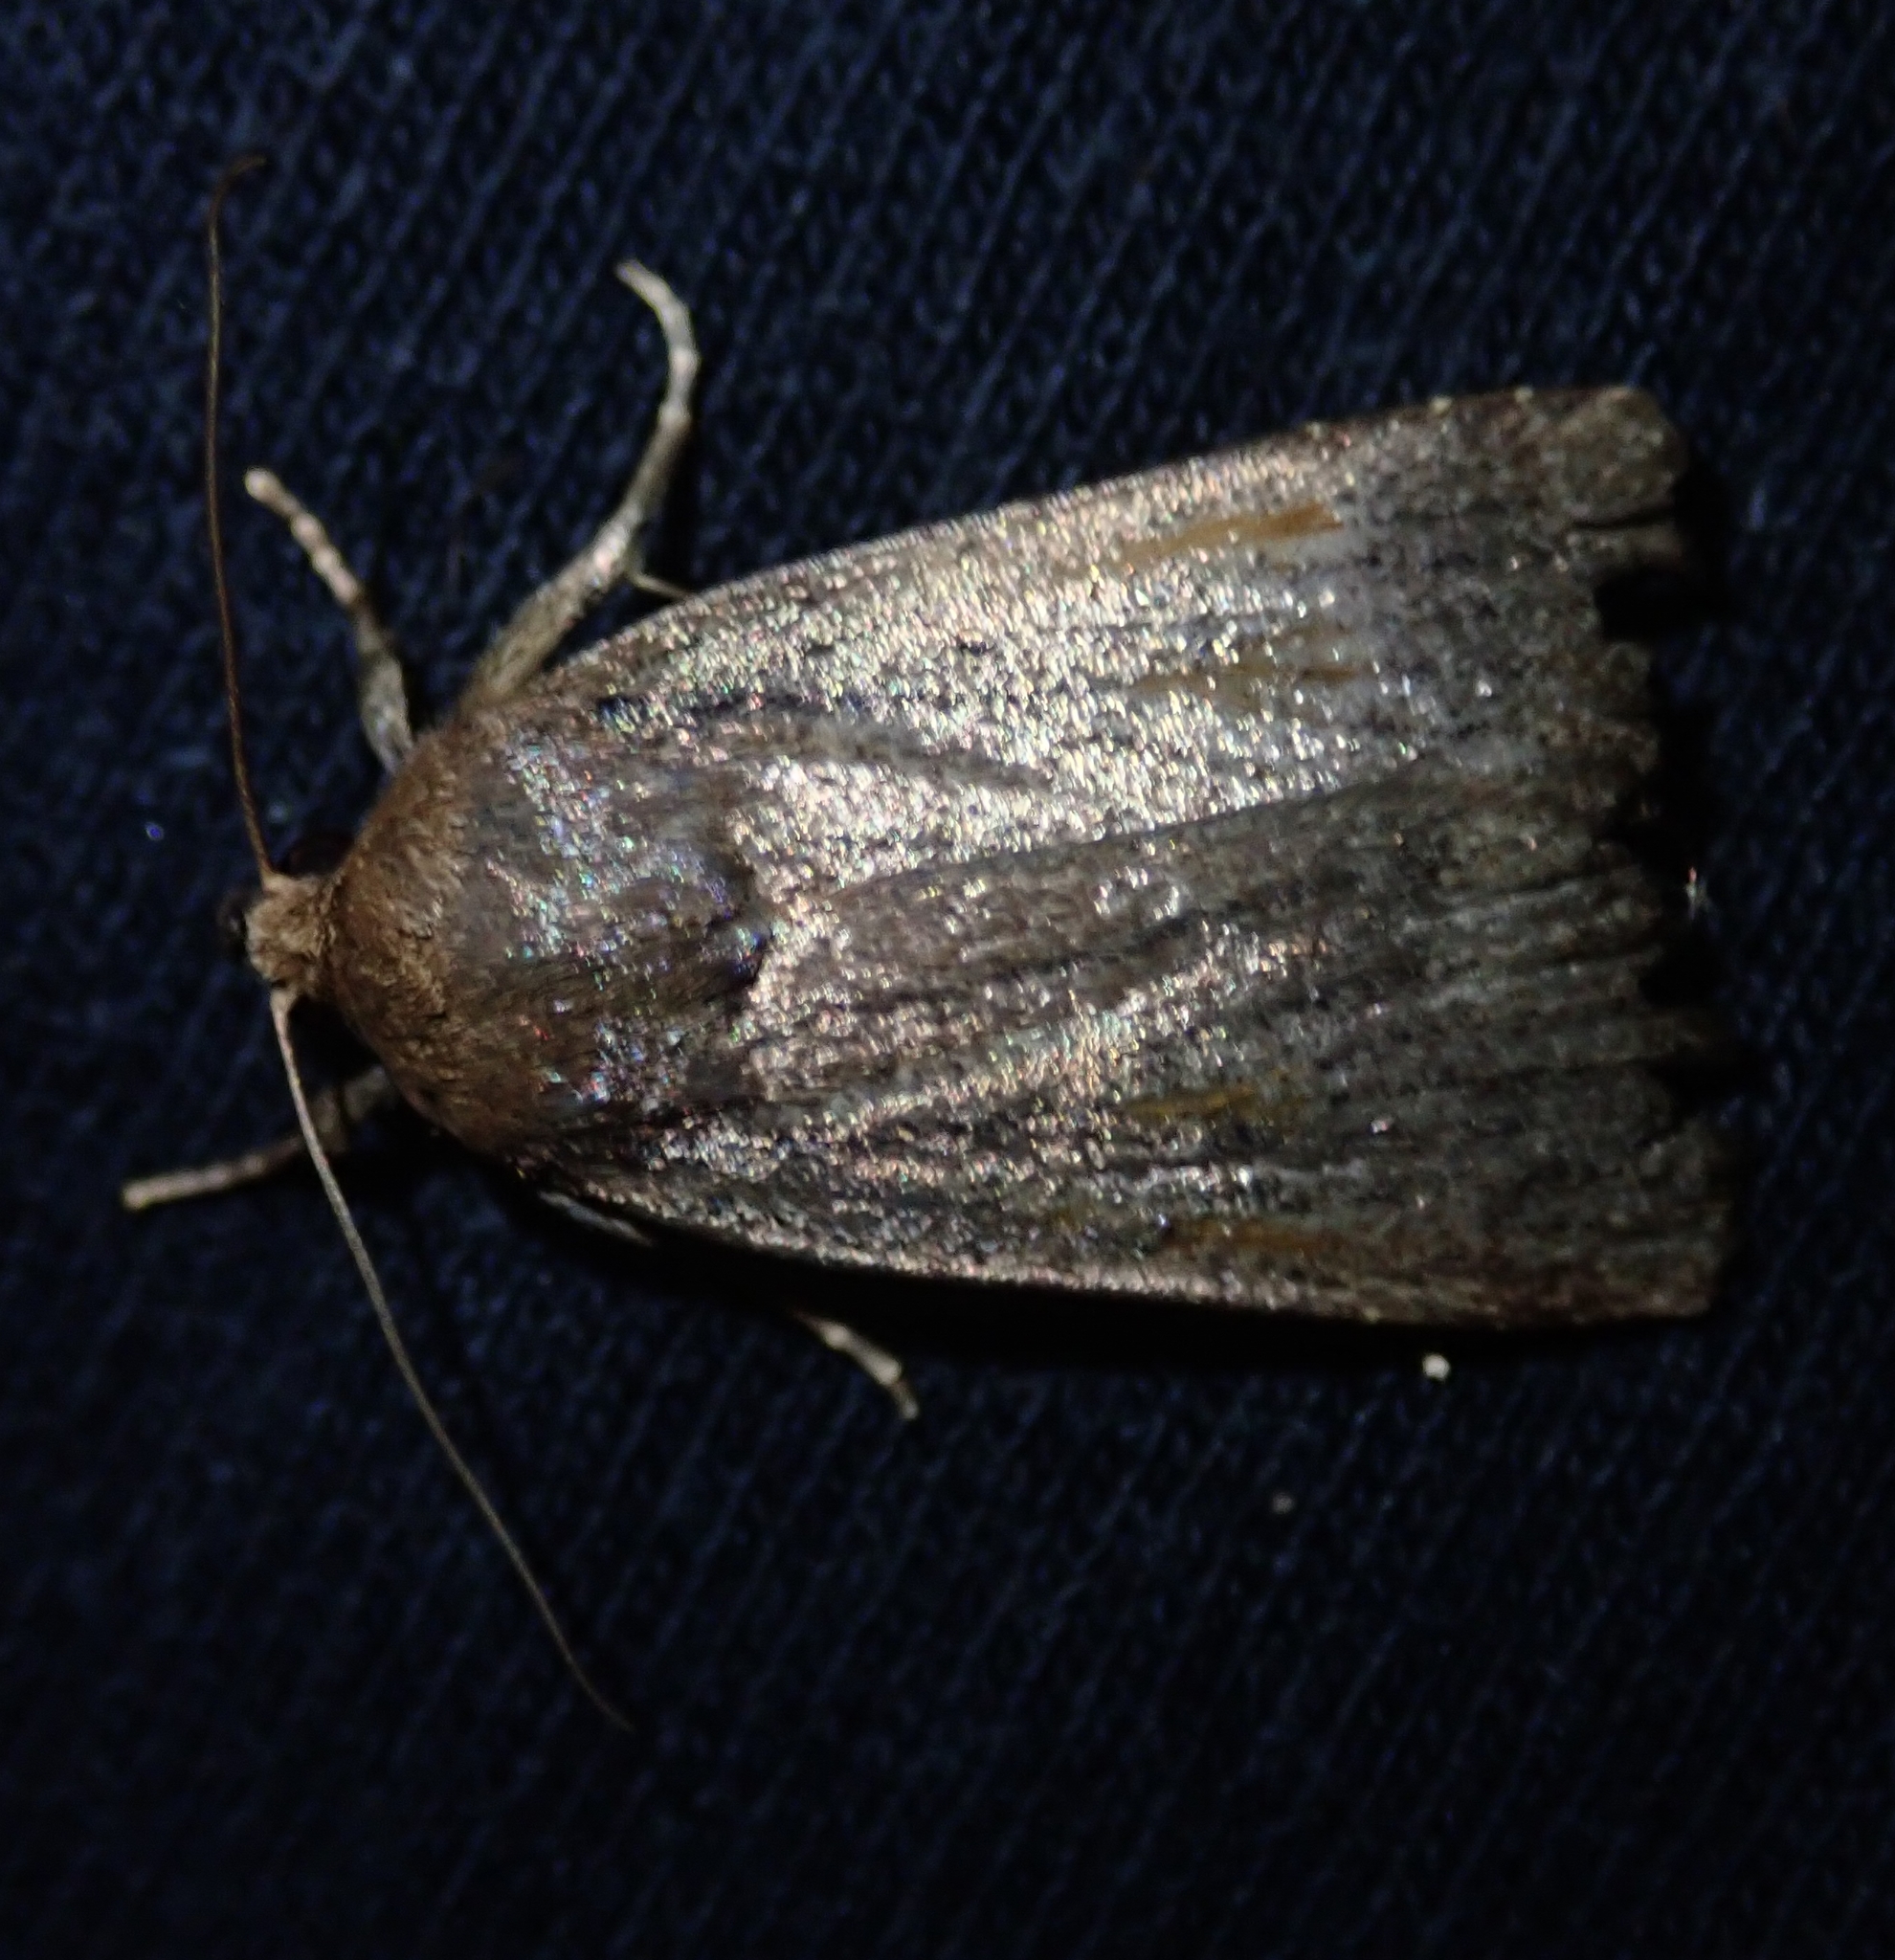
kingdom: Animalia
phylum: Arthropoda
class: Insecta
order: Lepidoptera
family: Noctuidae
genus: Amphipyra
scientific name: Amphipyra tragopoginis
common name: Mouse moth
